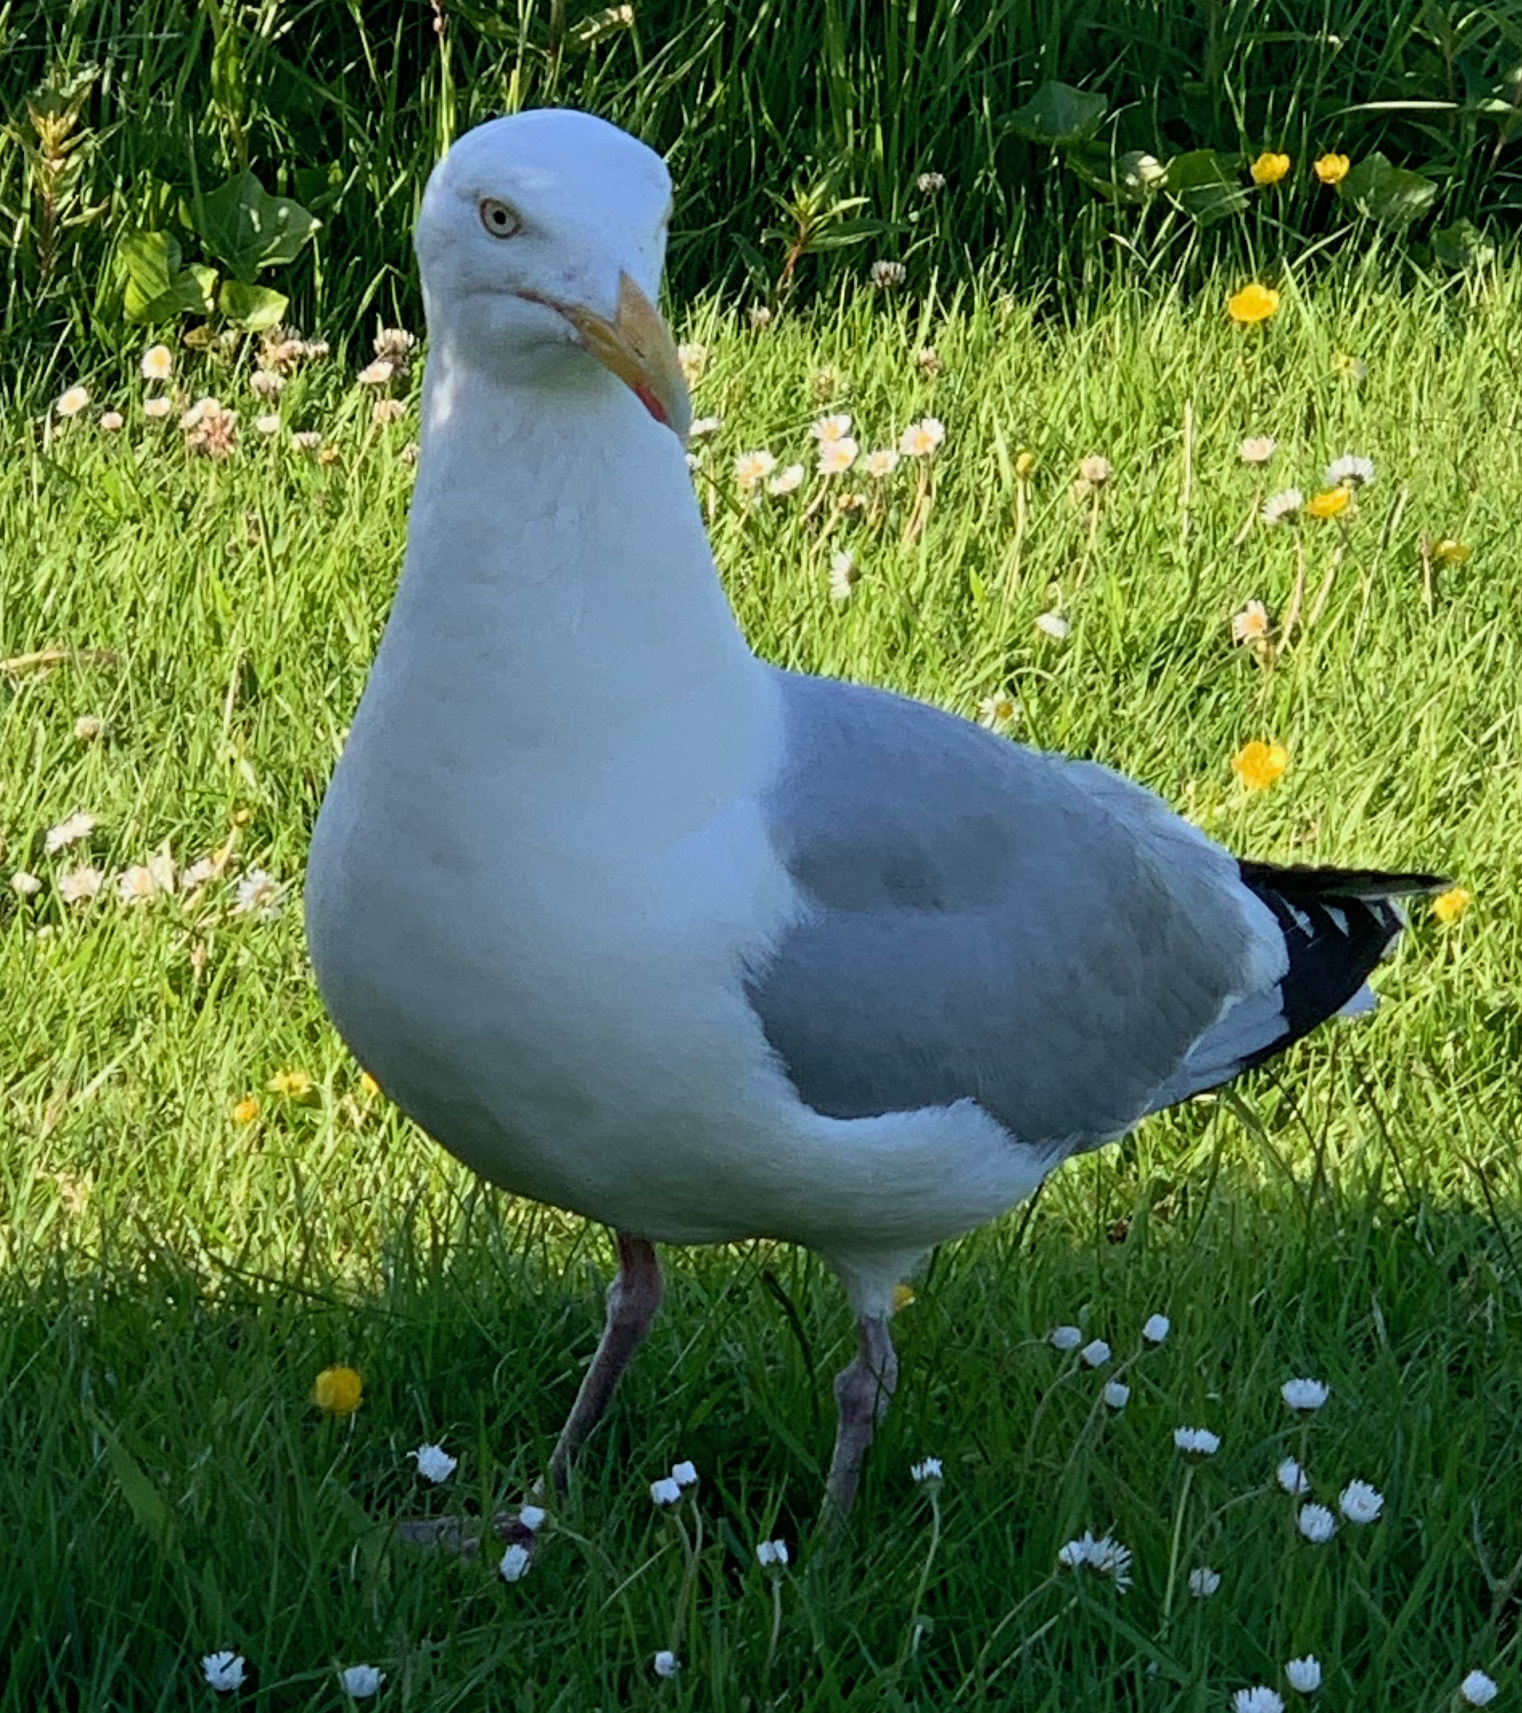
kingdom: Animalia
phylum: Chordata
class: Aves
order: Charadriiformes
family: Laridae
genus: Larus
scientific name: Larus argentatus
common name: Herring gull
